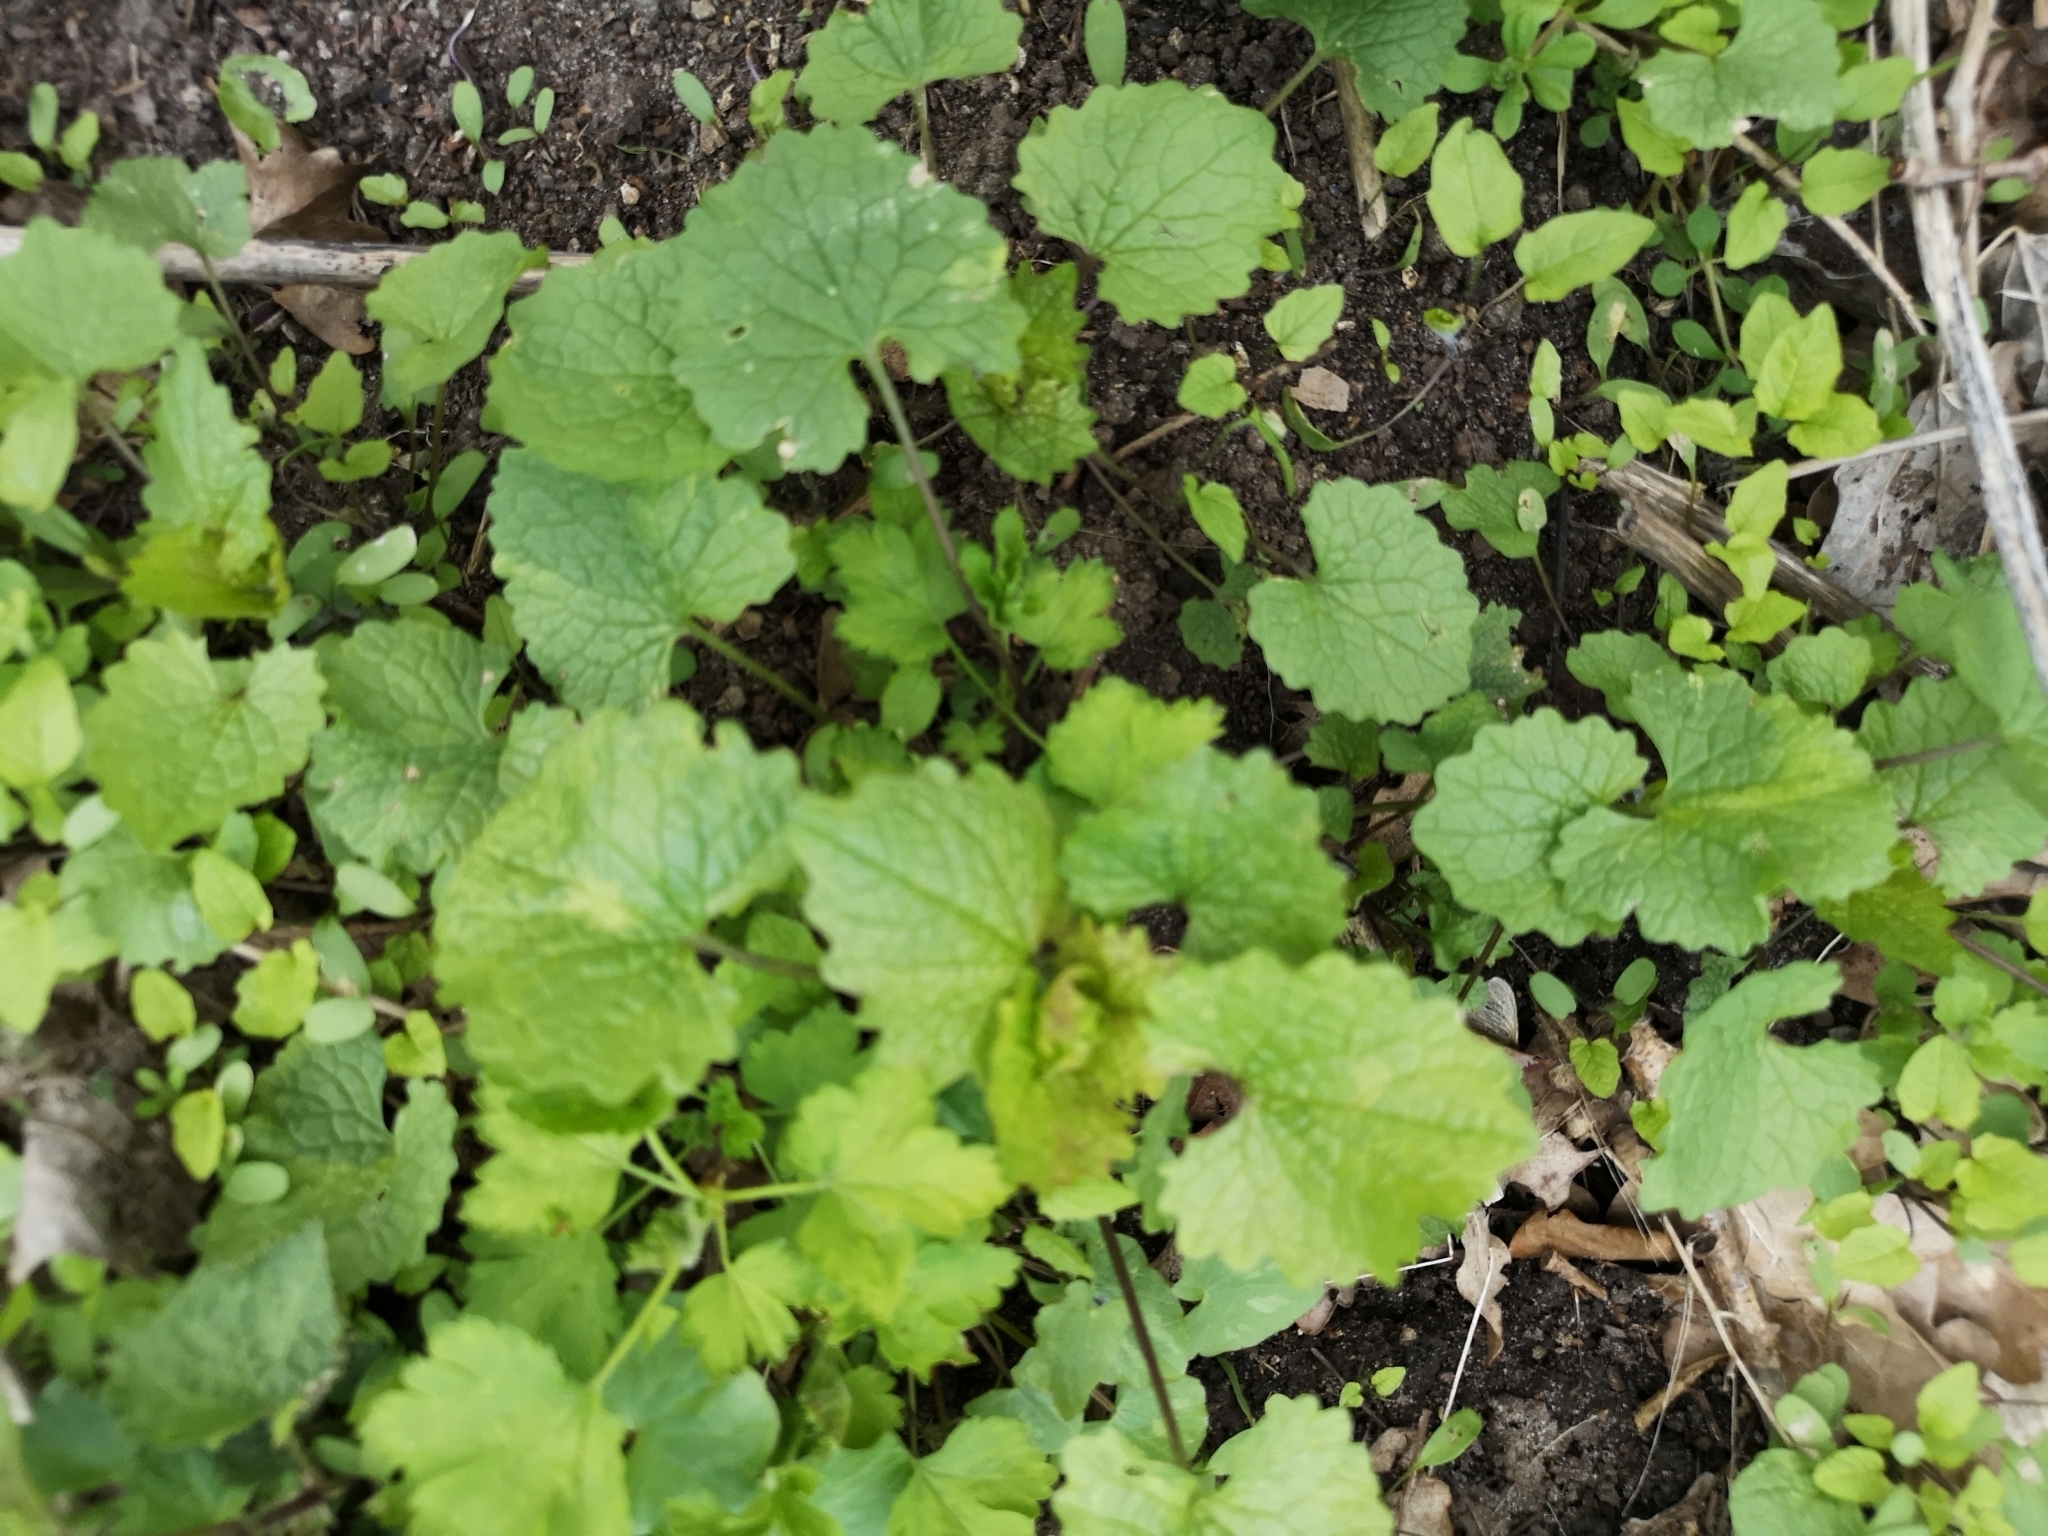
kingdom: Plantae
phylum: Tracheophyta
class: Magnoliopsida
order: Brassicales
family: Brassicaceae
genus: Alliaria
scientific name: Alliaria petiolata
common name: Garlic mustard
